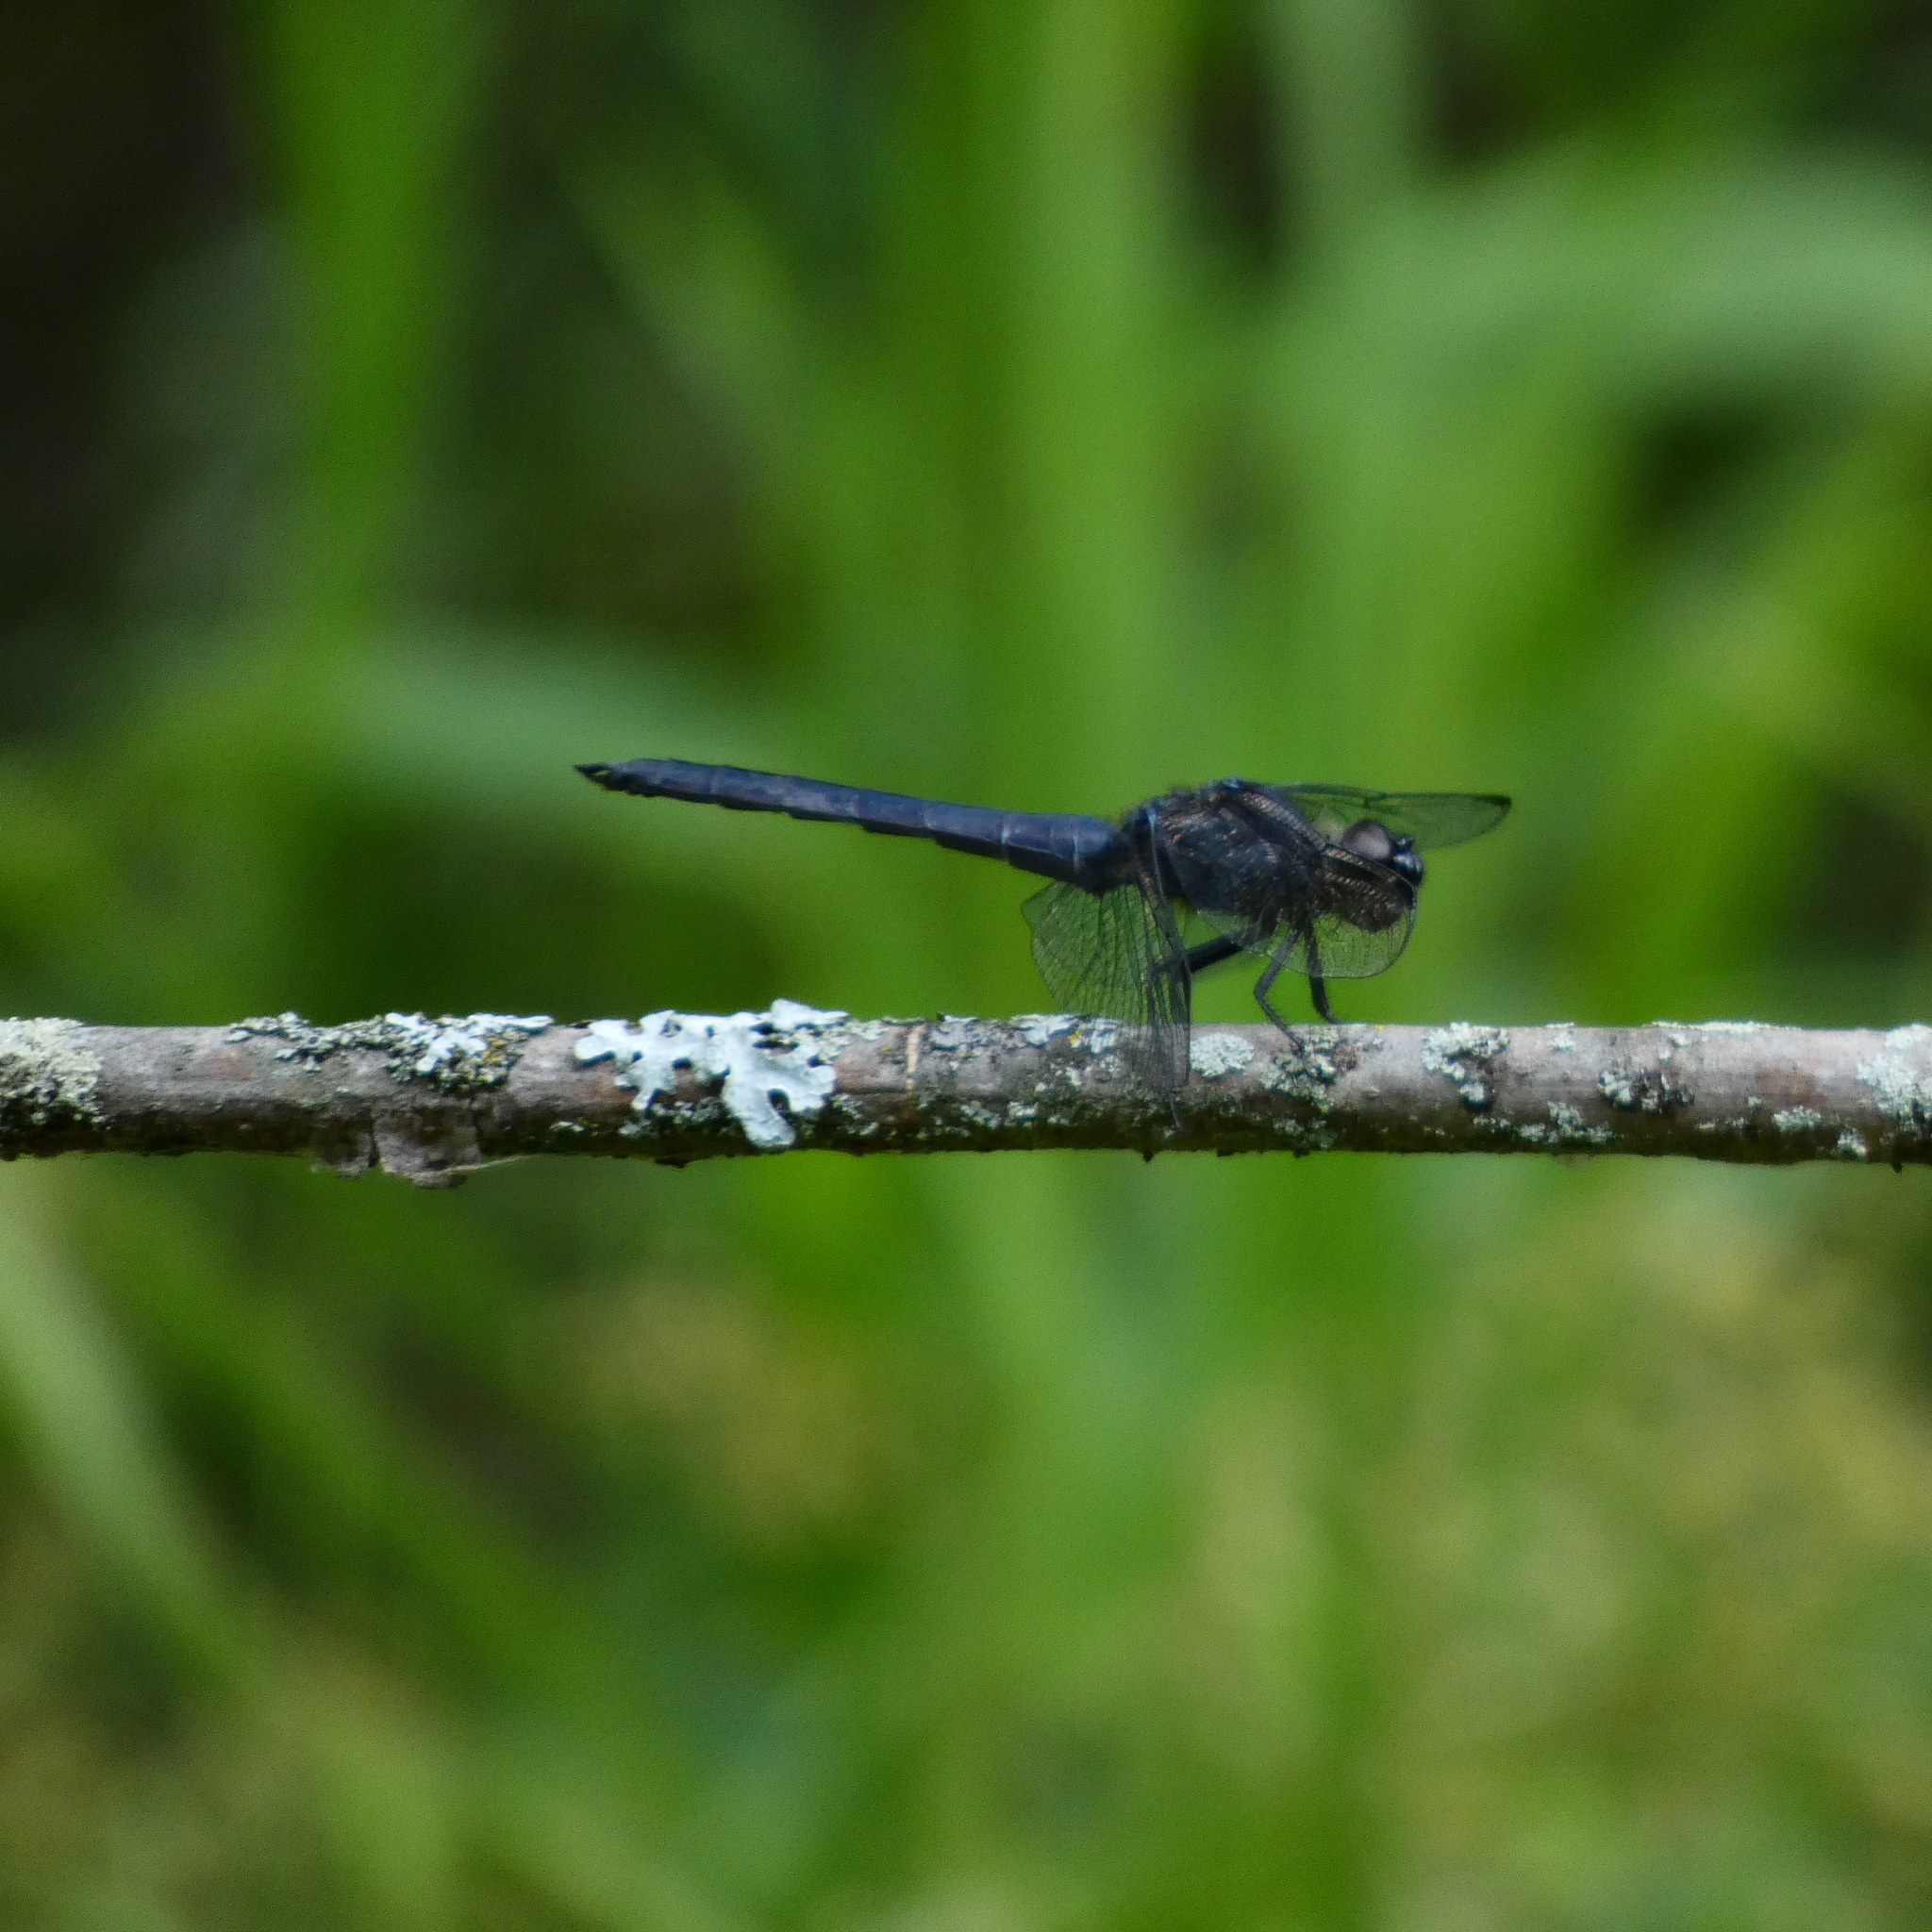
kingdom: Animalia
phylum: Arthropoda
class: Insecta
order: Odonata
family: Libellulidae
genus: Libellula
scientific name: Libellula incesta
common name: Slaty skimmer
